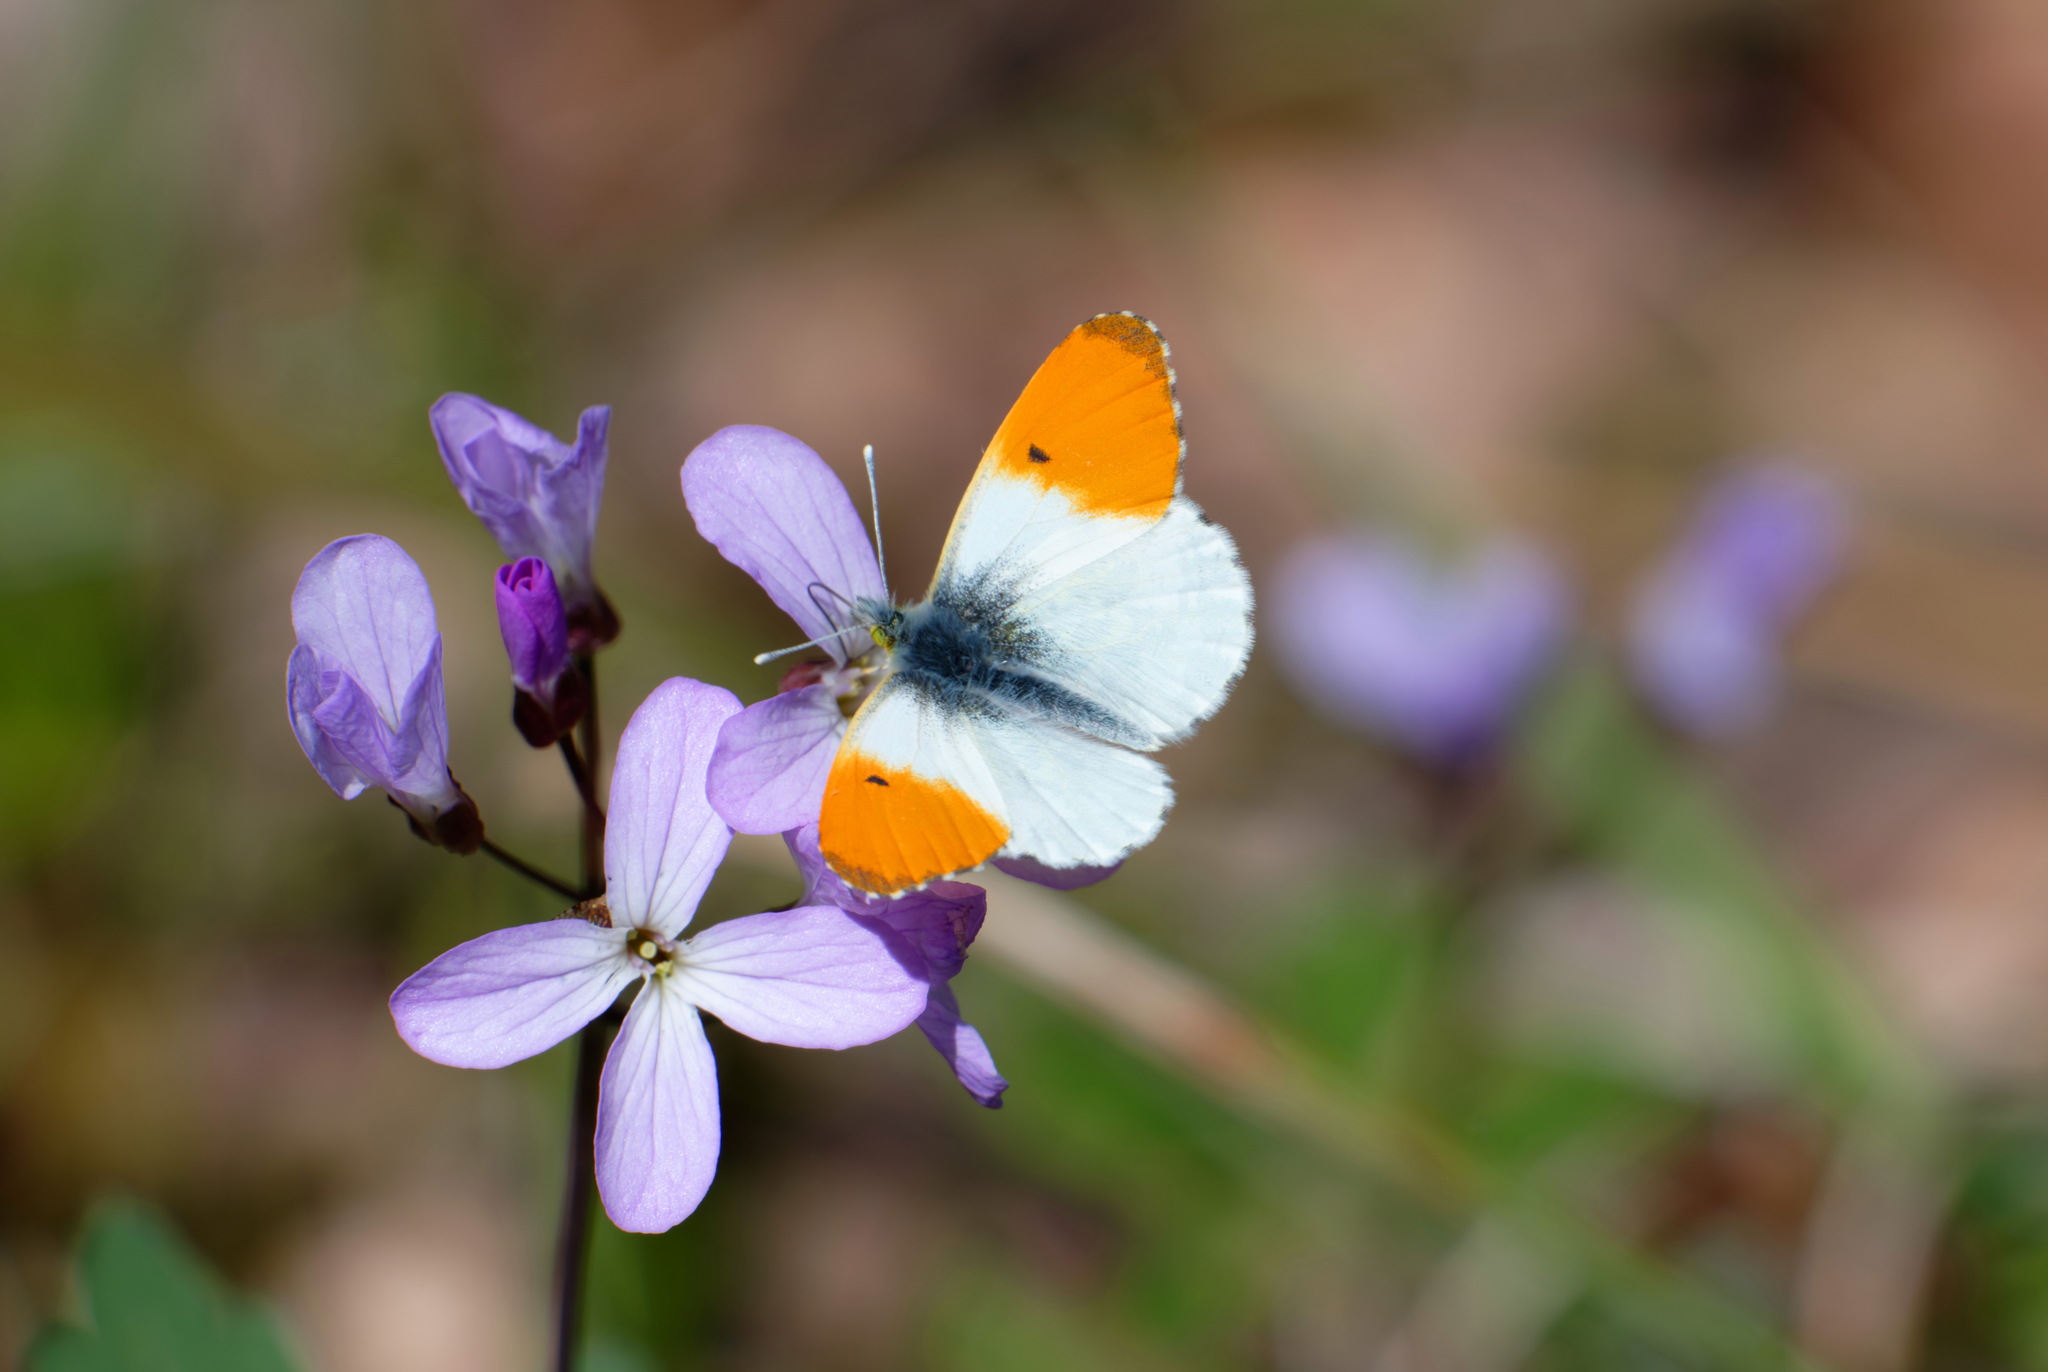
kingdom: Animalia
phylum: Arthropoda
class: Insecta
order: Lepidoptera
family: Pieridae
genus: Anthocharis
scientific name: Anthocharis cardamines
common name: Orange-tip
